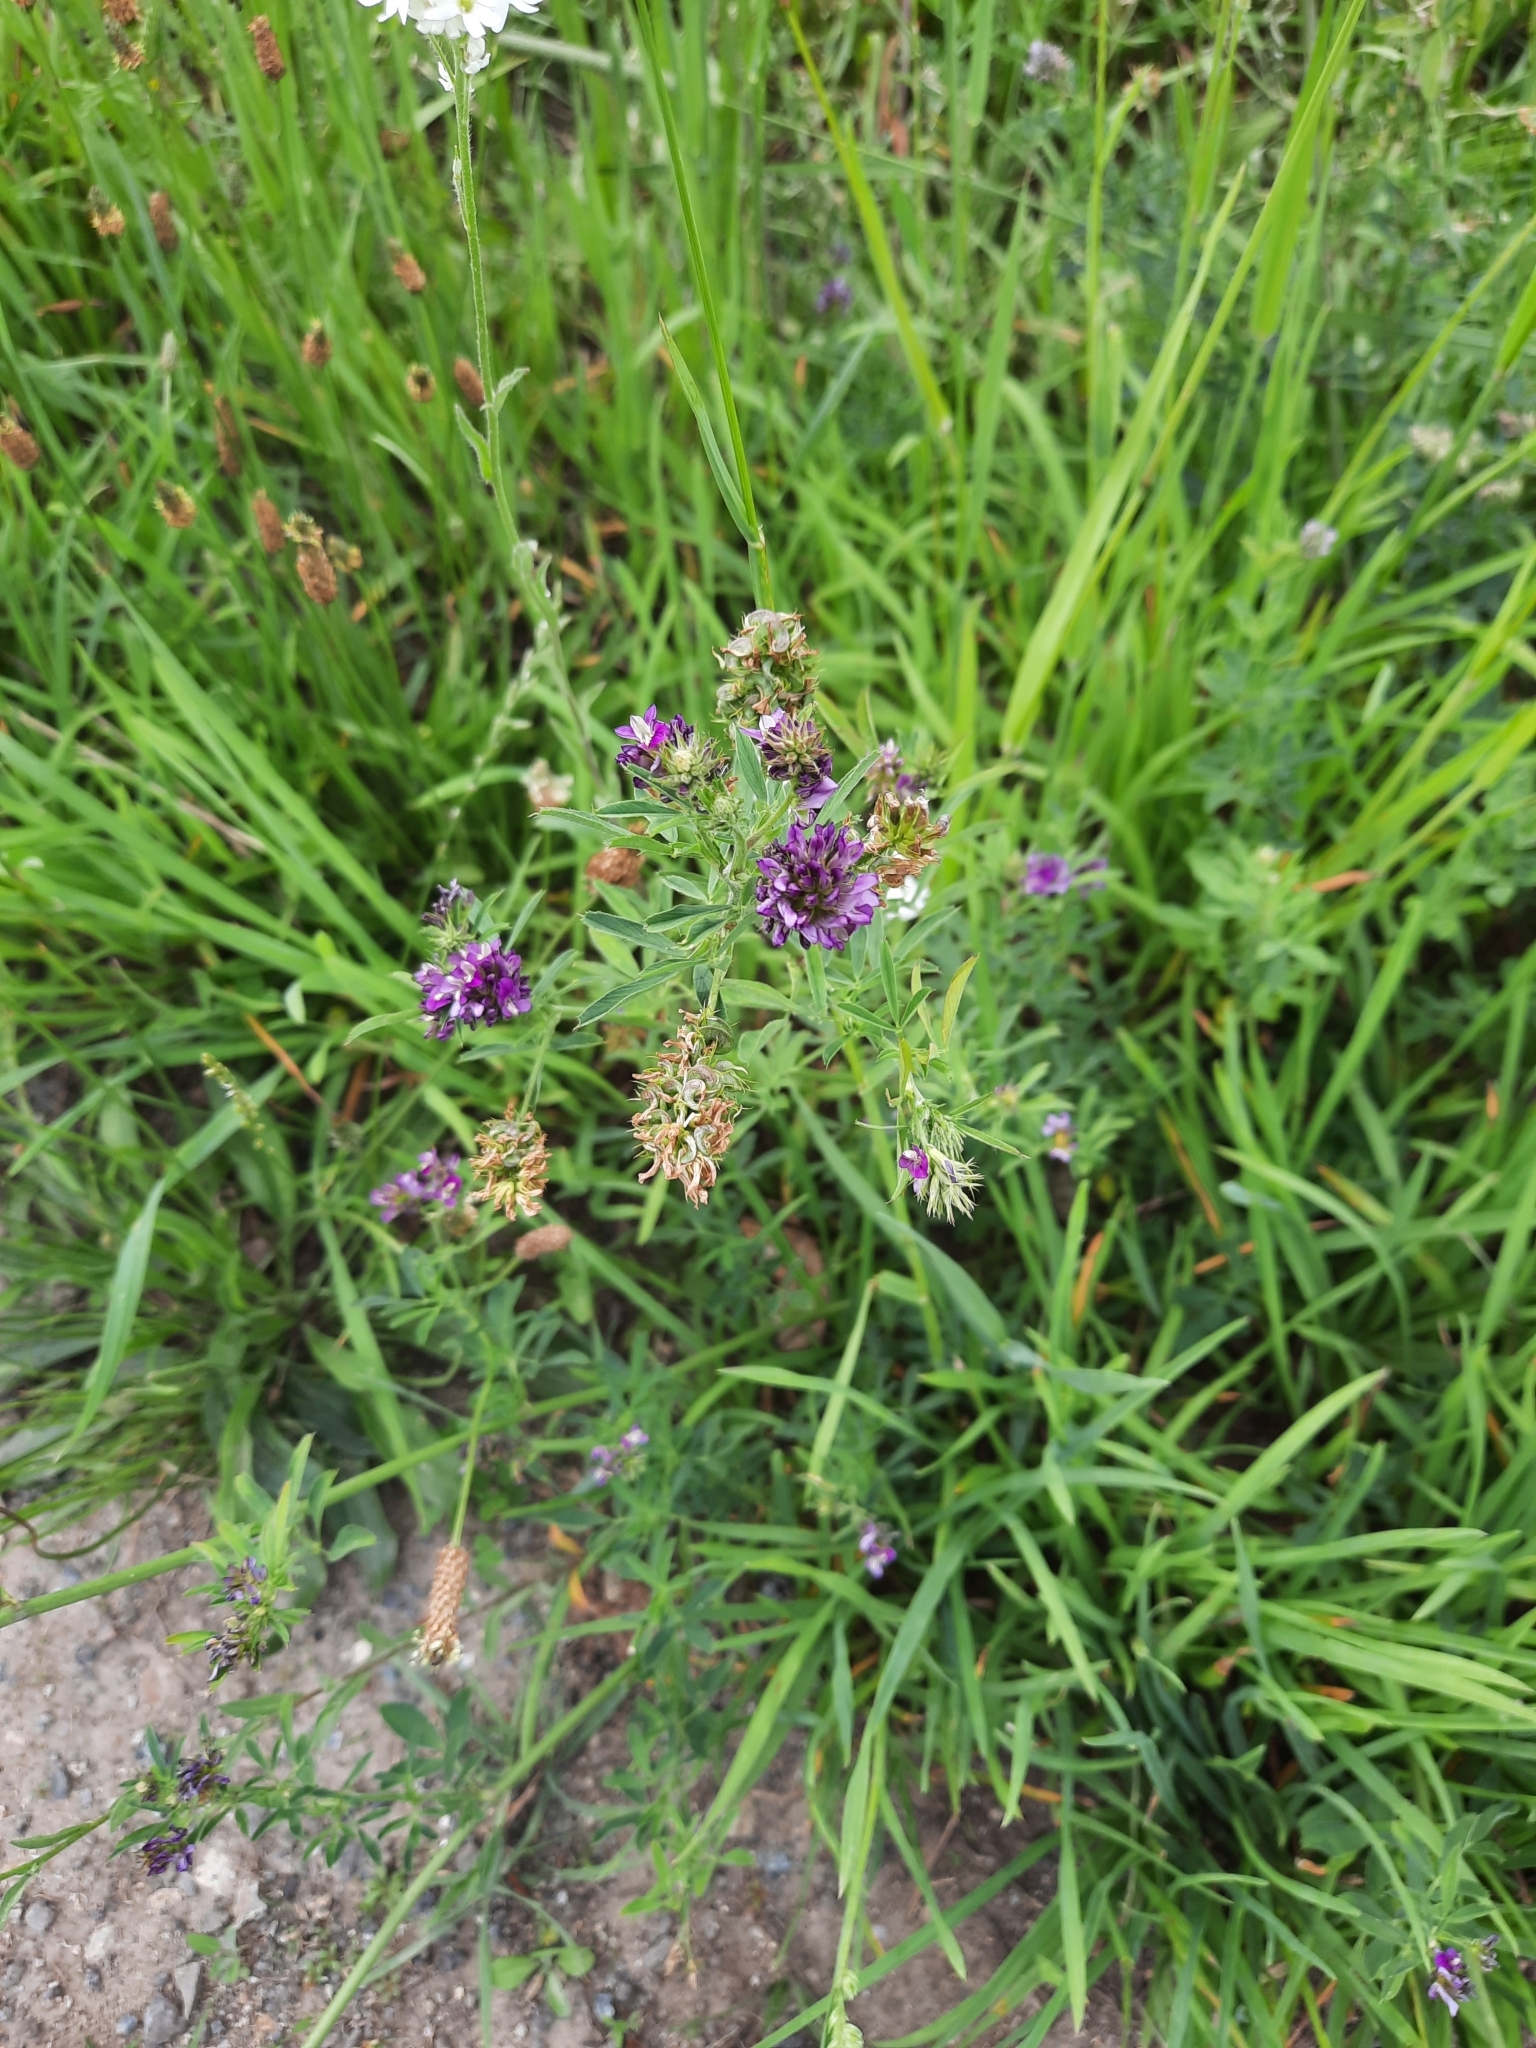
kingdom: Plantae
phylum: Tracheophyta
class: Magnoliopsida
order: Fabales
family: Fabaceae
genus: Medicago
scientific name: Medicago sativa
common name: Alfalfa
